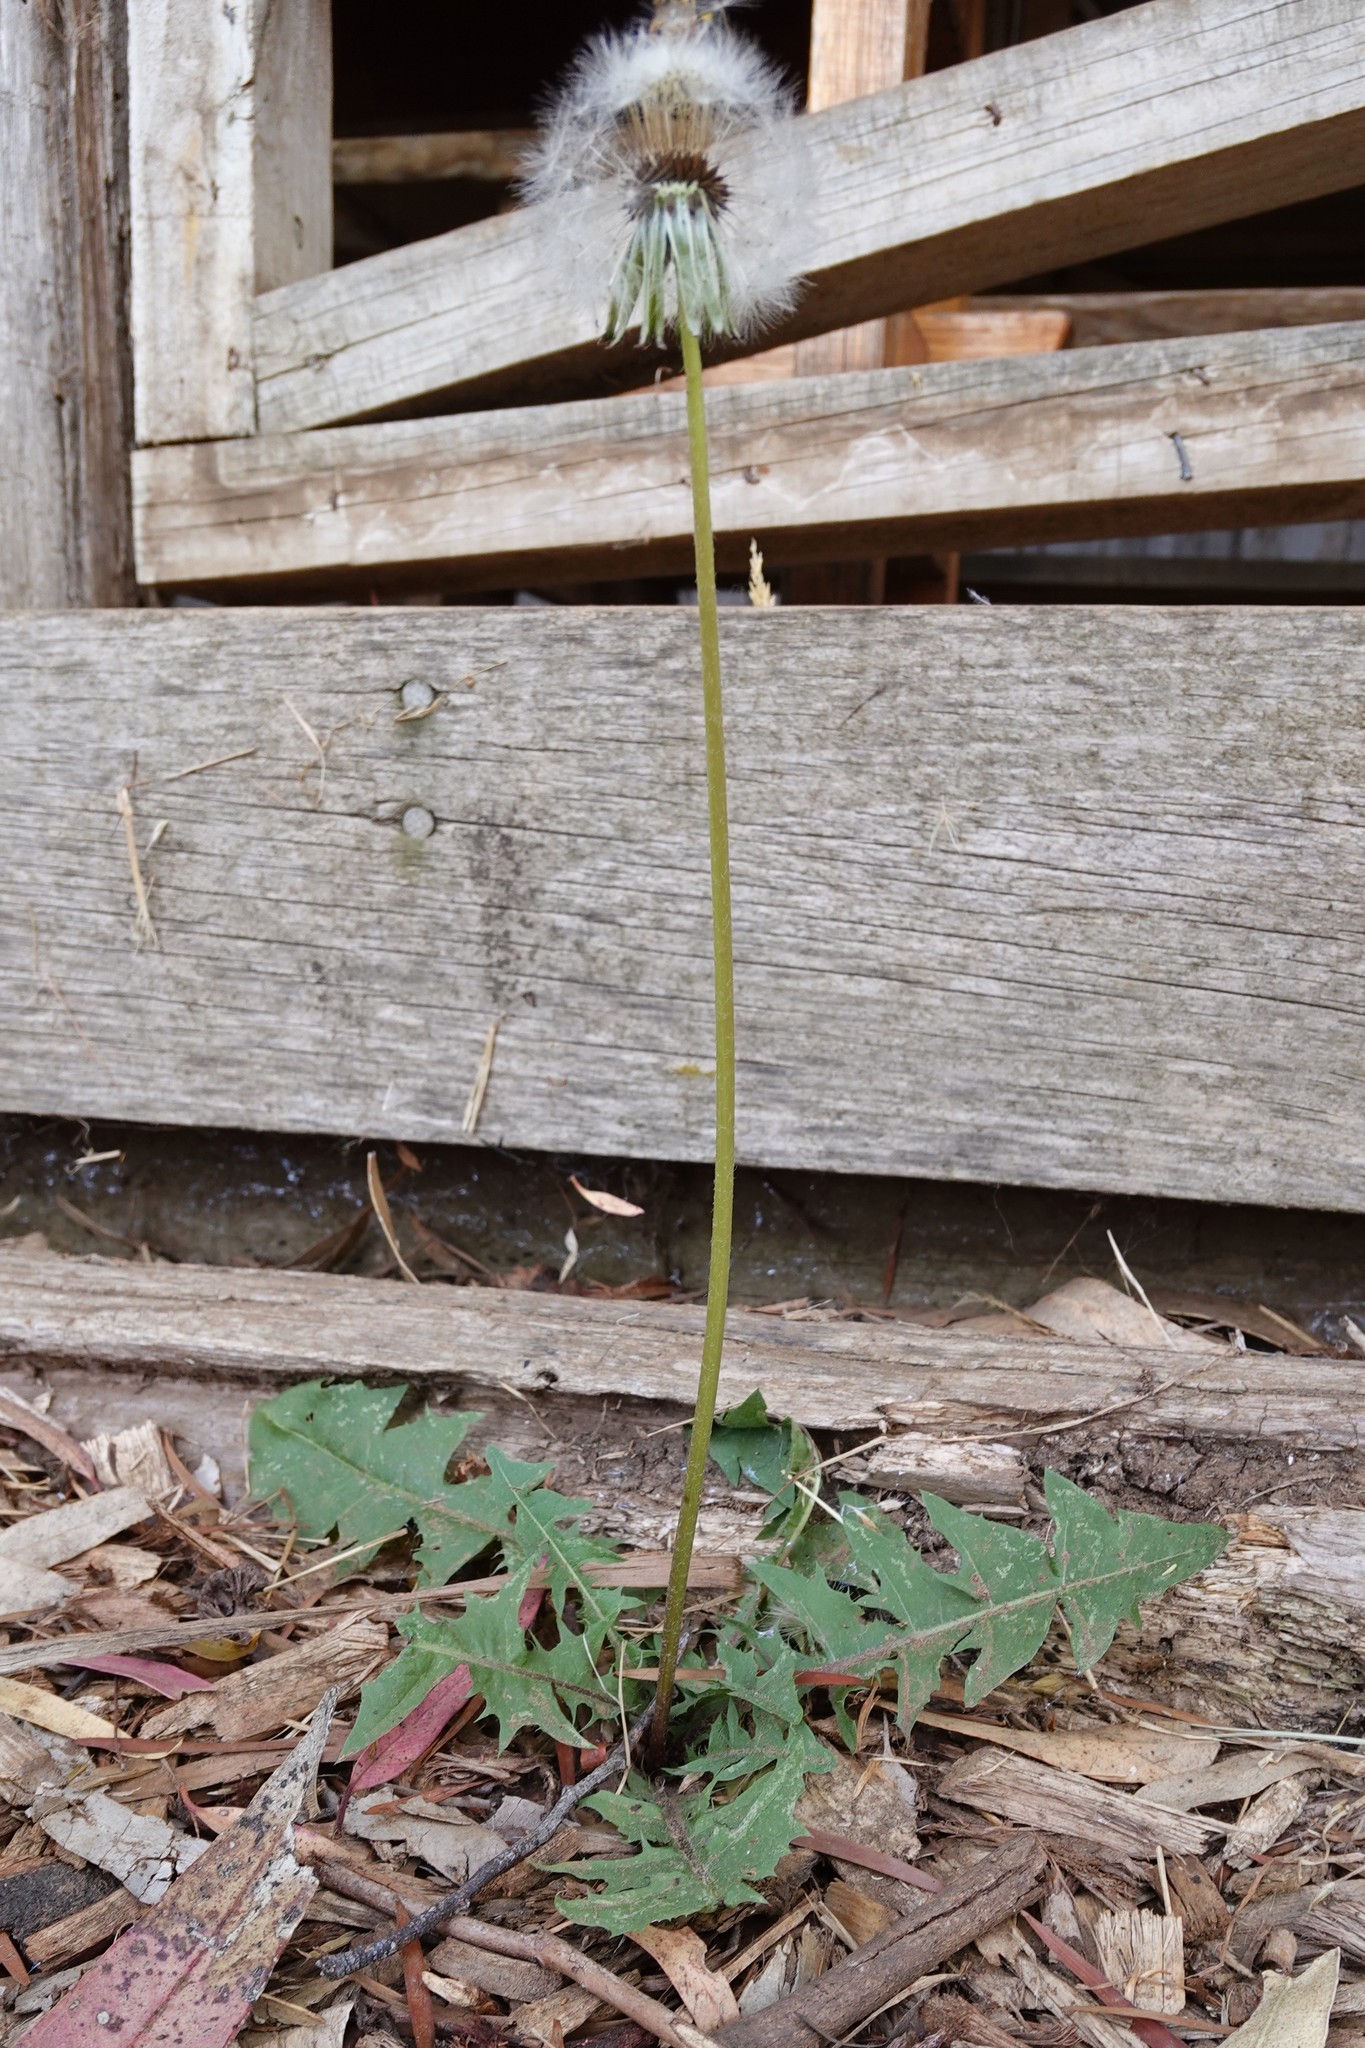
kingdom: Plantae
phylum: Tracheophyta
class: Magnoliopsida
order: Asterales
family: Asteraceae
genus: Taraxacum
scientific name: Taraxacum officinale
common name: Common dandelion
